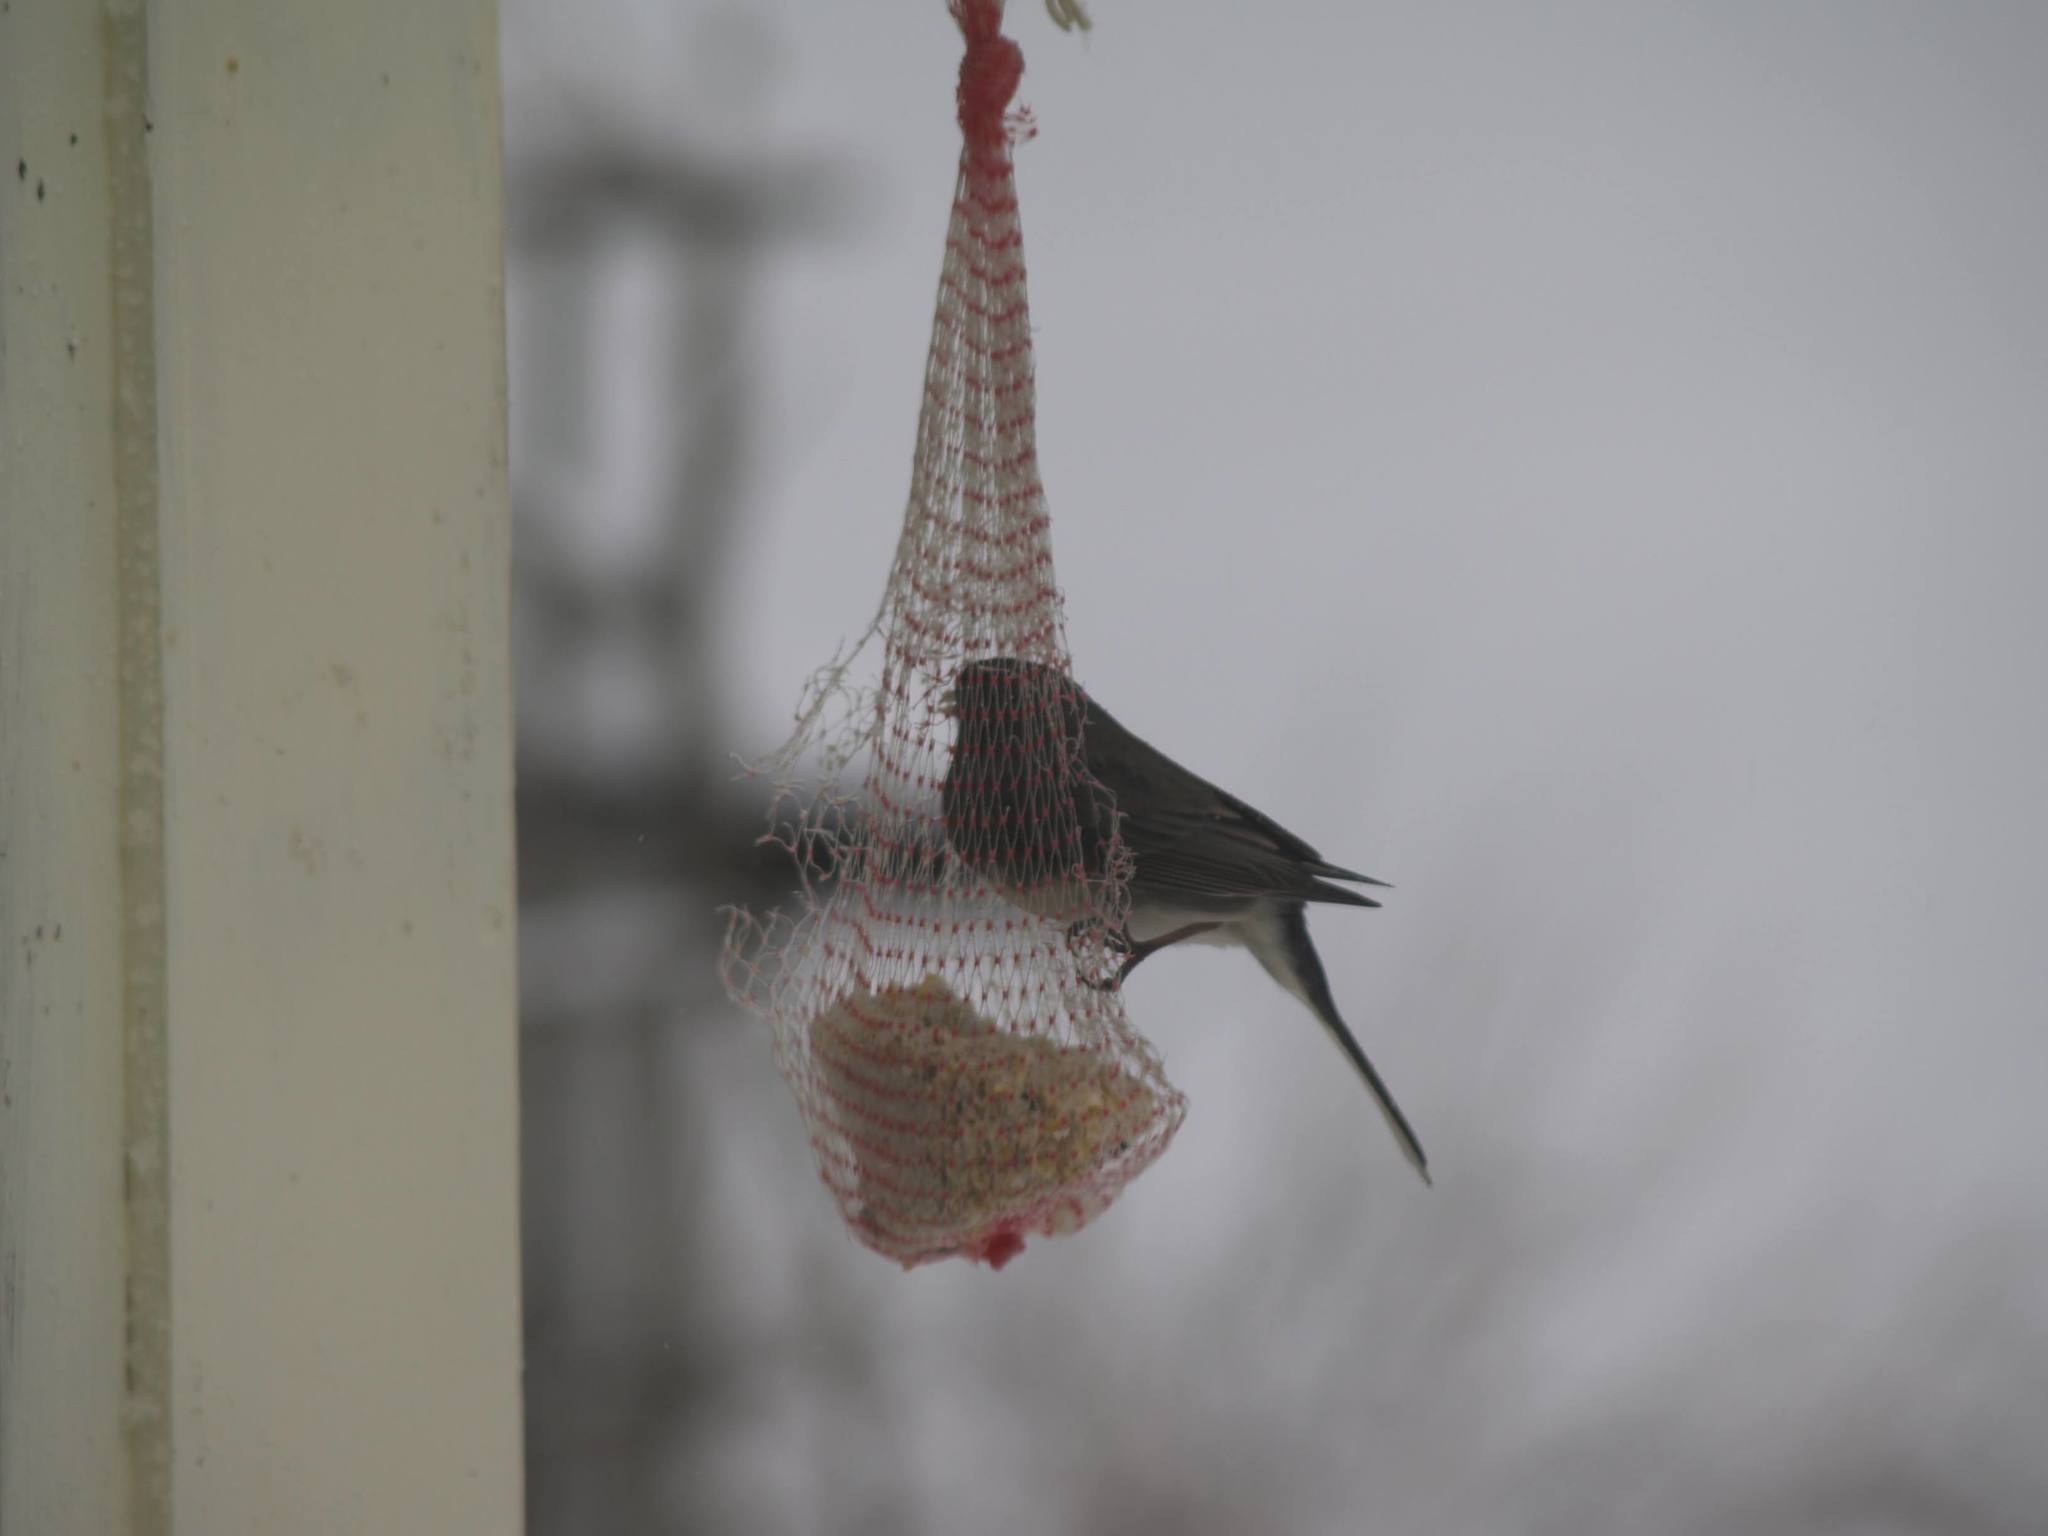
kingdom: Animalia
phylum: Chordata
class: Aves
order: Passeriformes
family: Passerellidae
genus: Junco
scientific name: Junco hyemalis
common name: Dark-eyed junco
